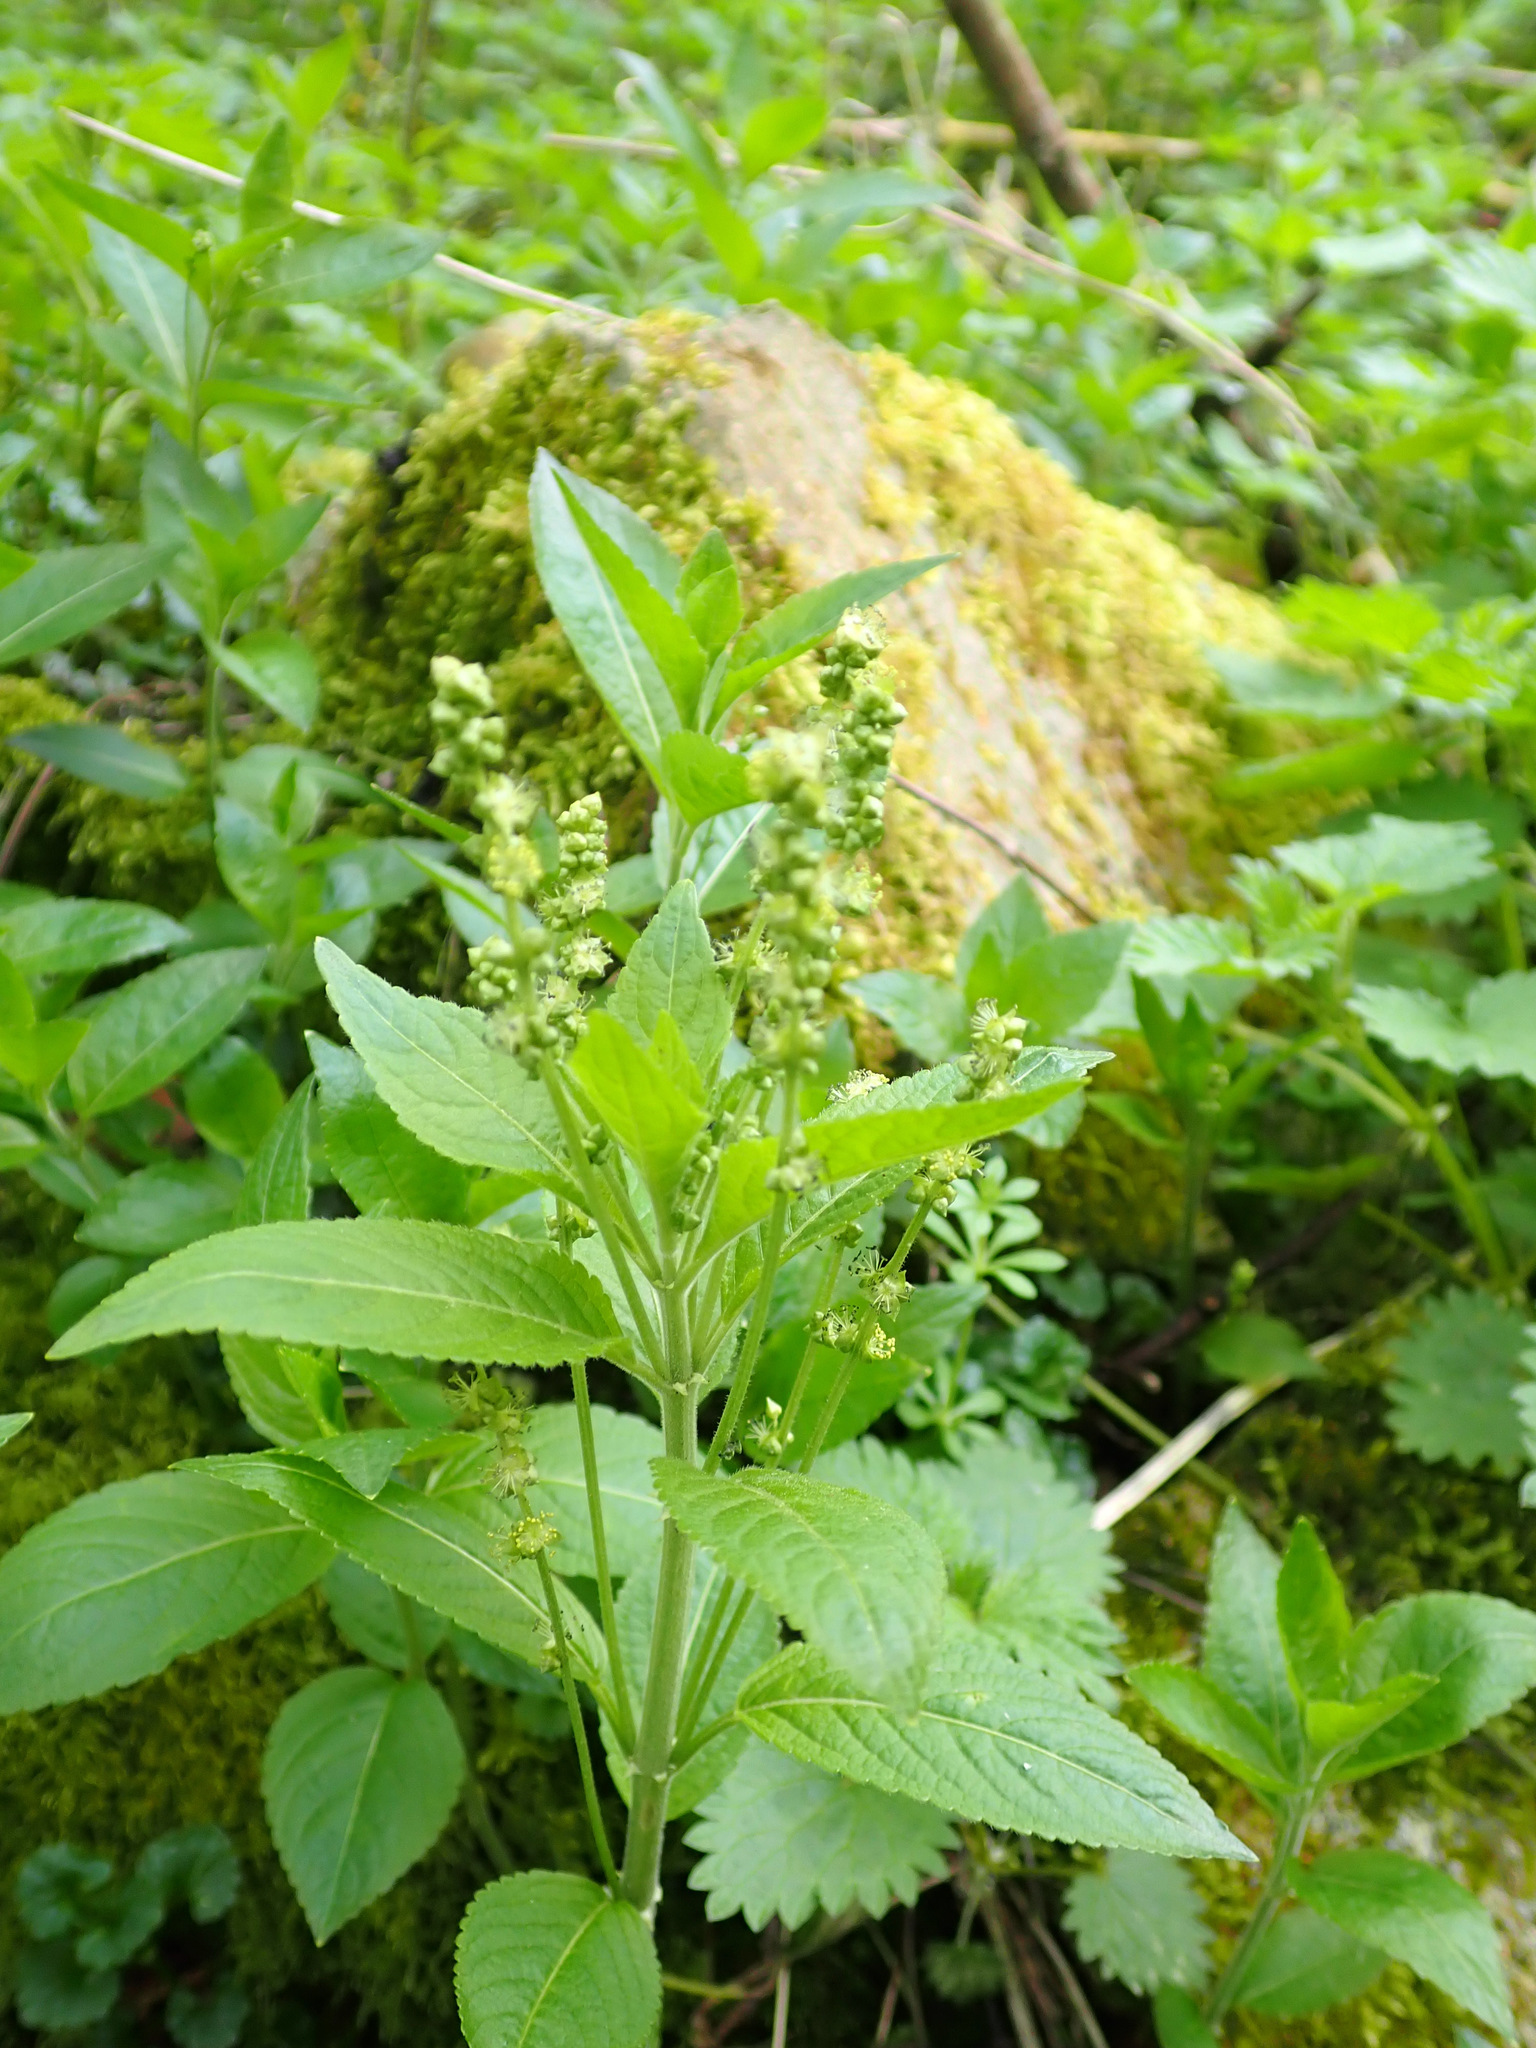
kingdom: Plantae
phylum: Tracheophyta
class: Magnoliopsida
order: Malpighiales
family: Euphorbiaceae
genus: Mercurialis
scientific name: Mercurialis perennis
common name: Dog mercury
